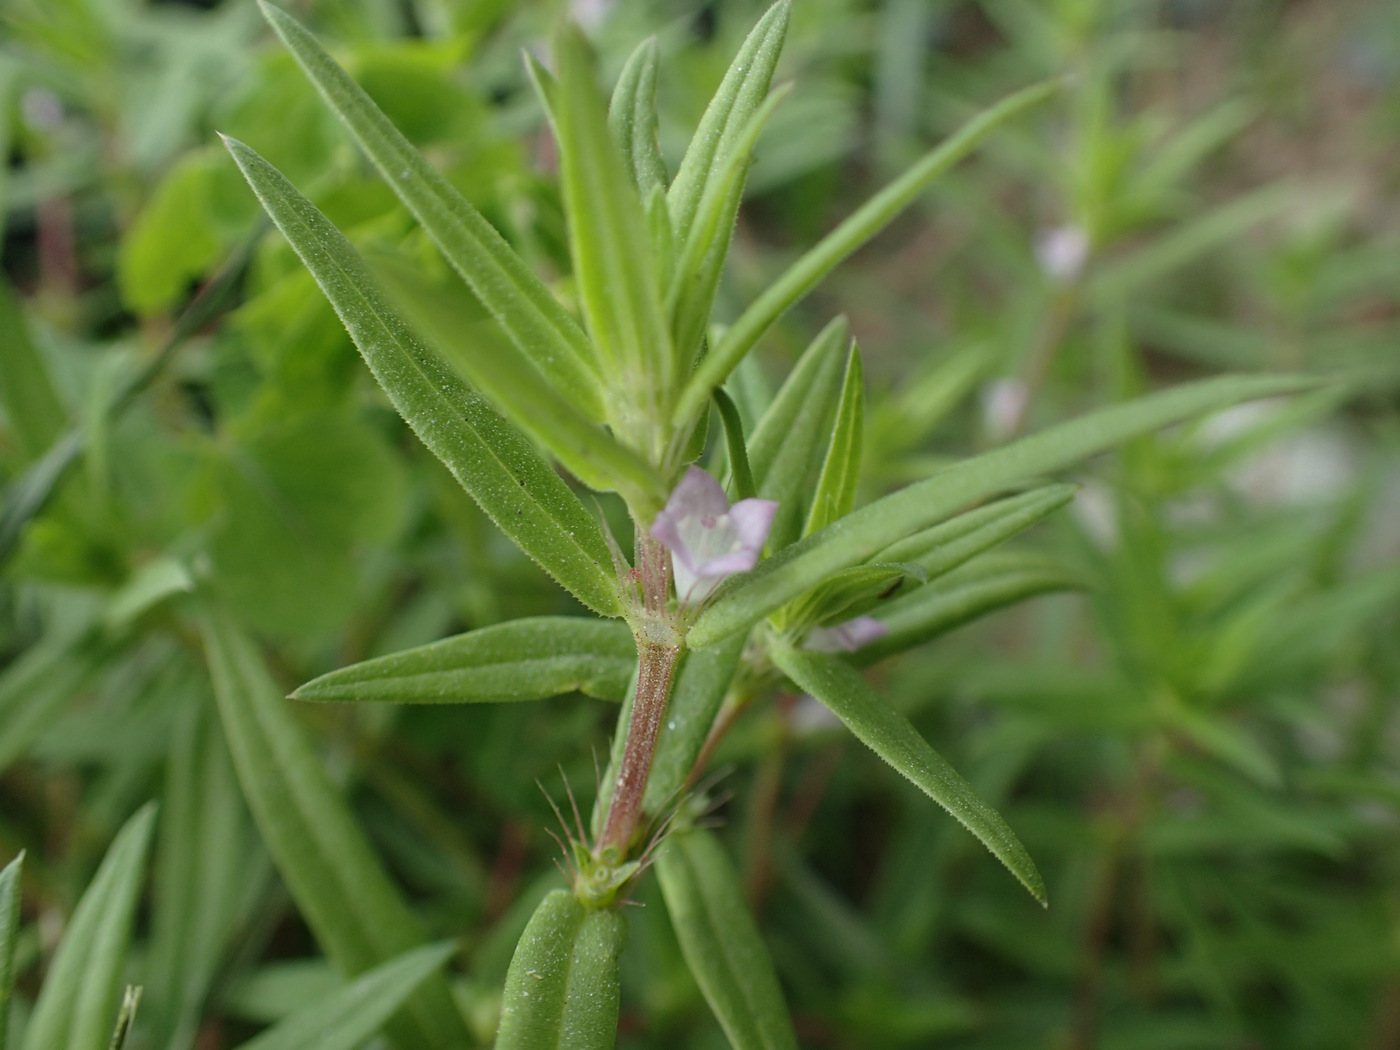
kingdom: Plantae
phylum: Tracheophyta
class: Magnoliopsida
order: Gentianales
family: Rubiaceae
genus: Hexasepalum
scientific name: Hexasepalum teres
